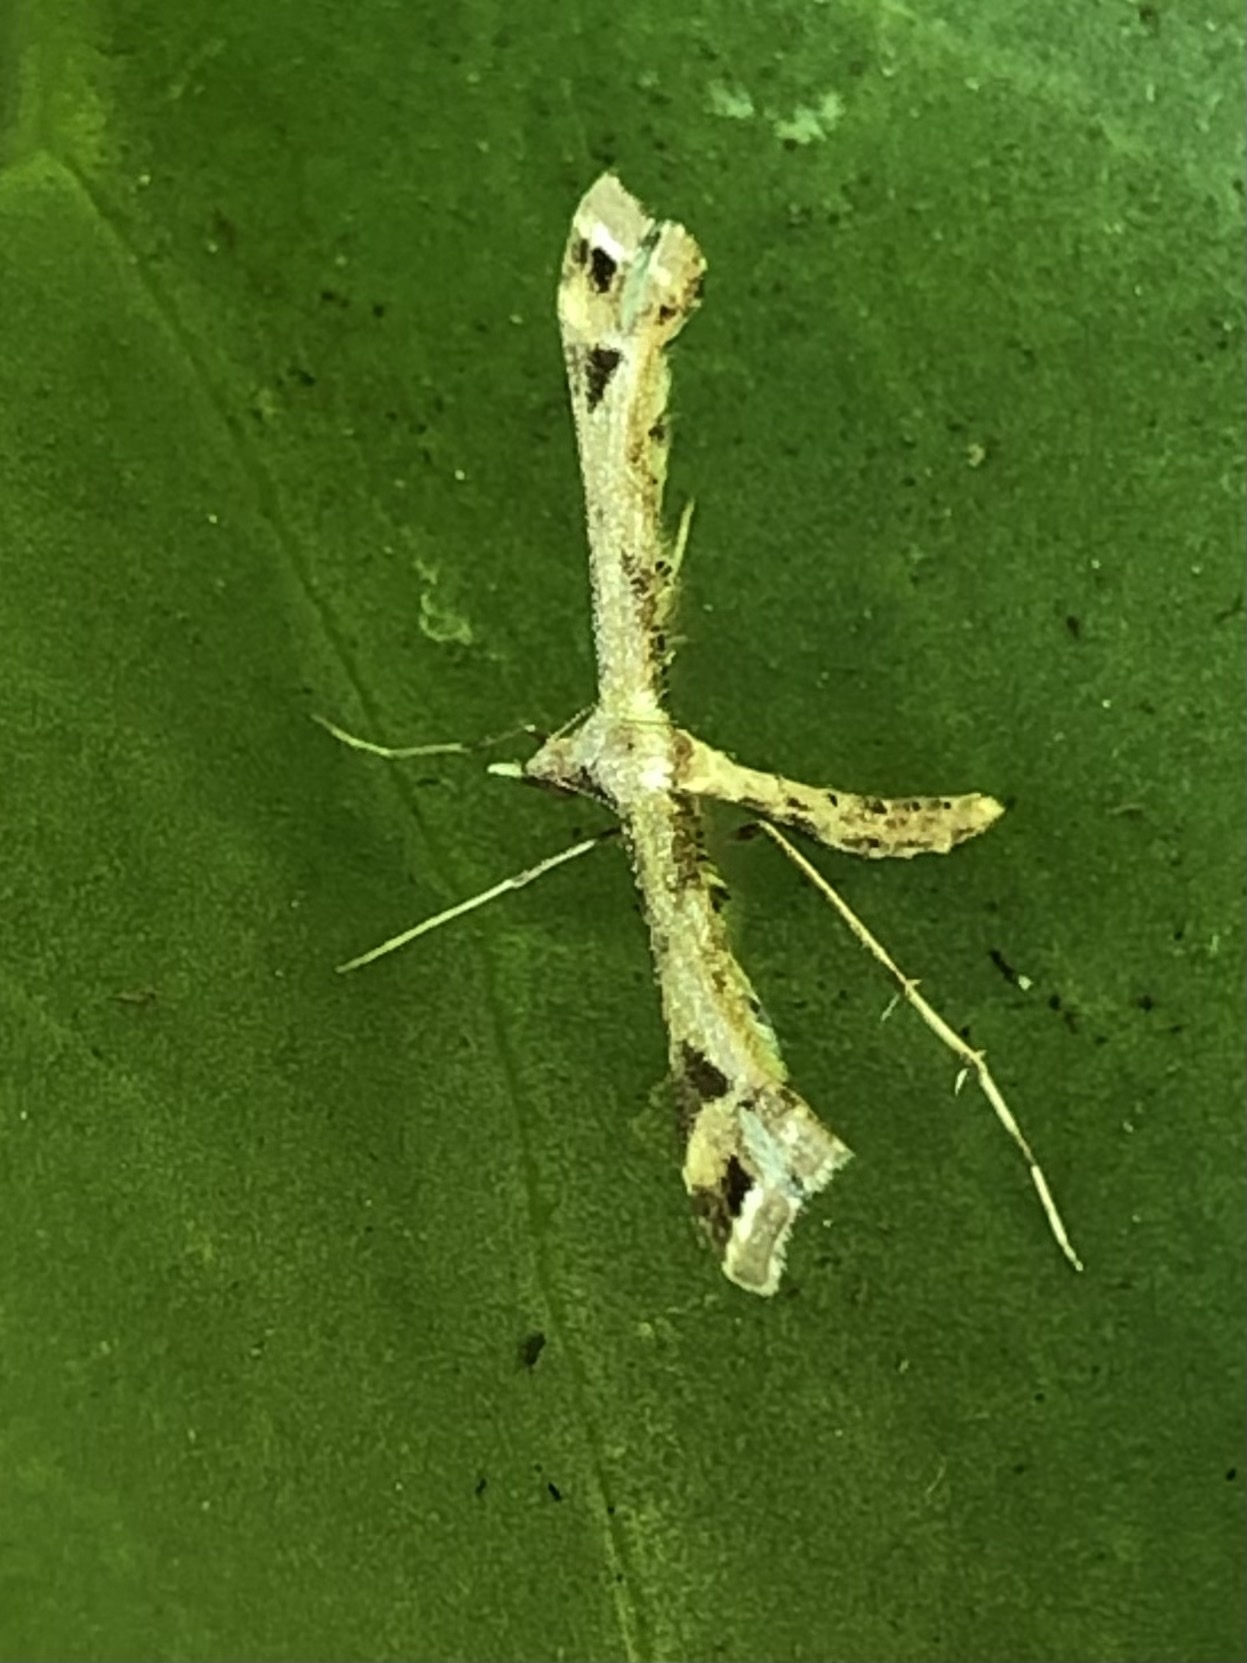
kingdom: Animalia
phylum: Arthropoda
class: Insecta
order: Lepidoptera
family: Pterophoridae
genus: Platyptilia
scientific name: Platyptilia carduidactylus
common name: Artichoke plume moth
